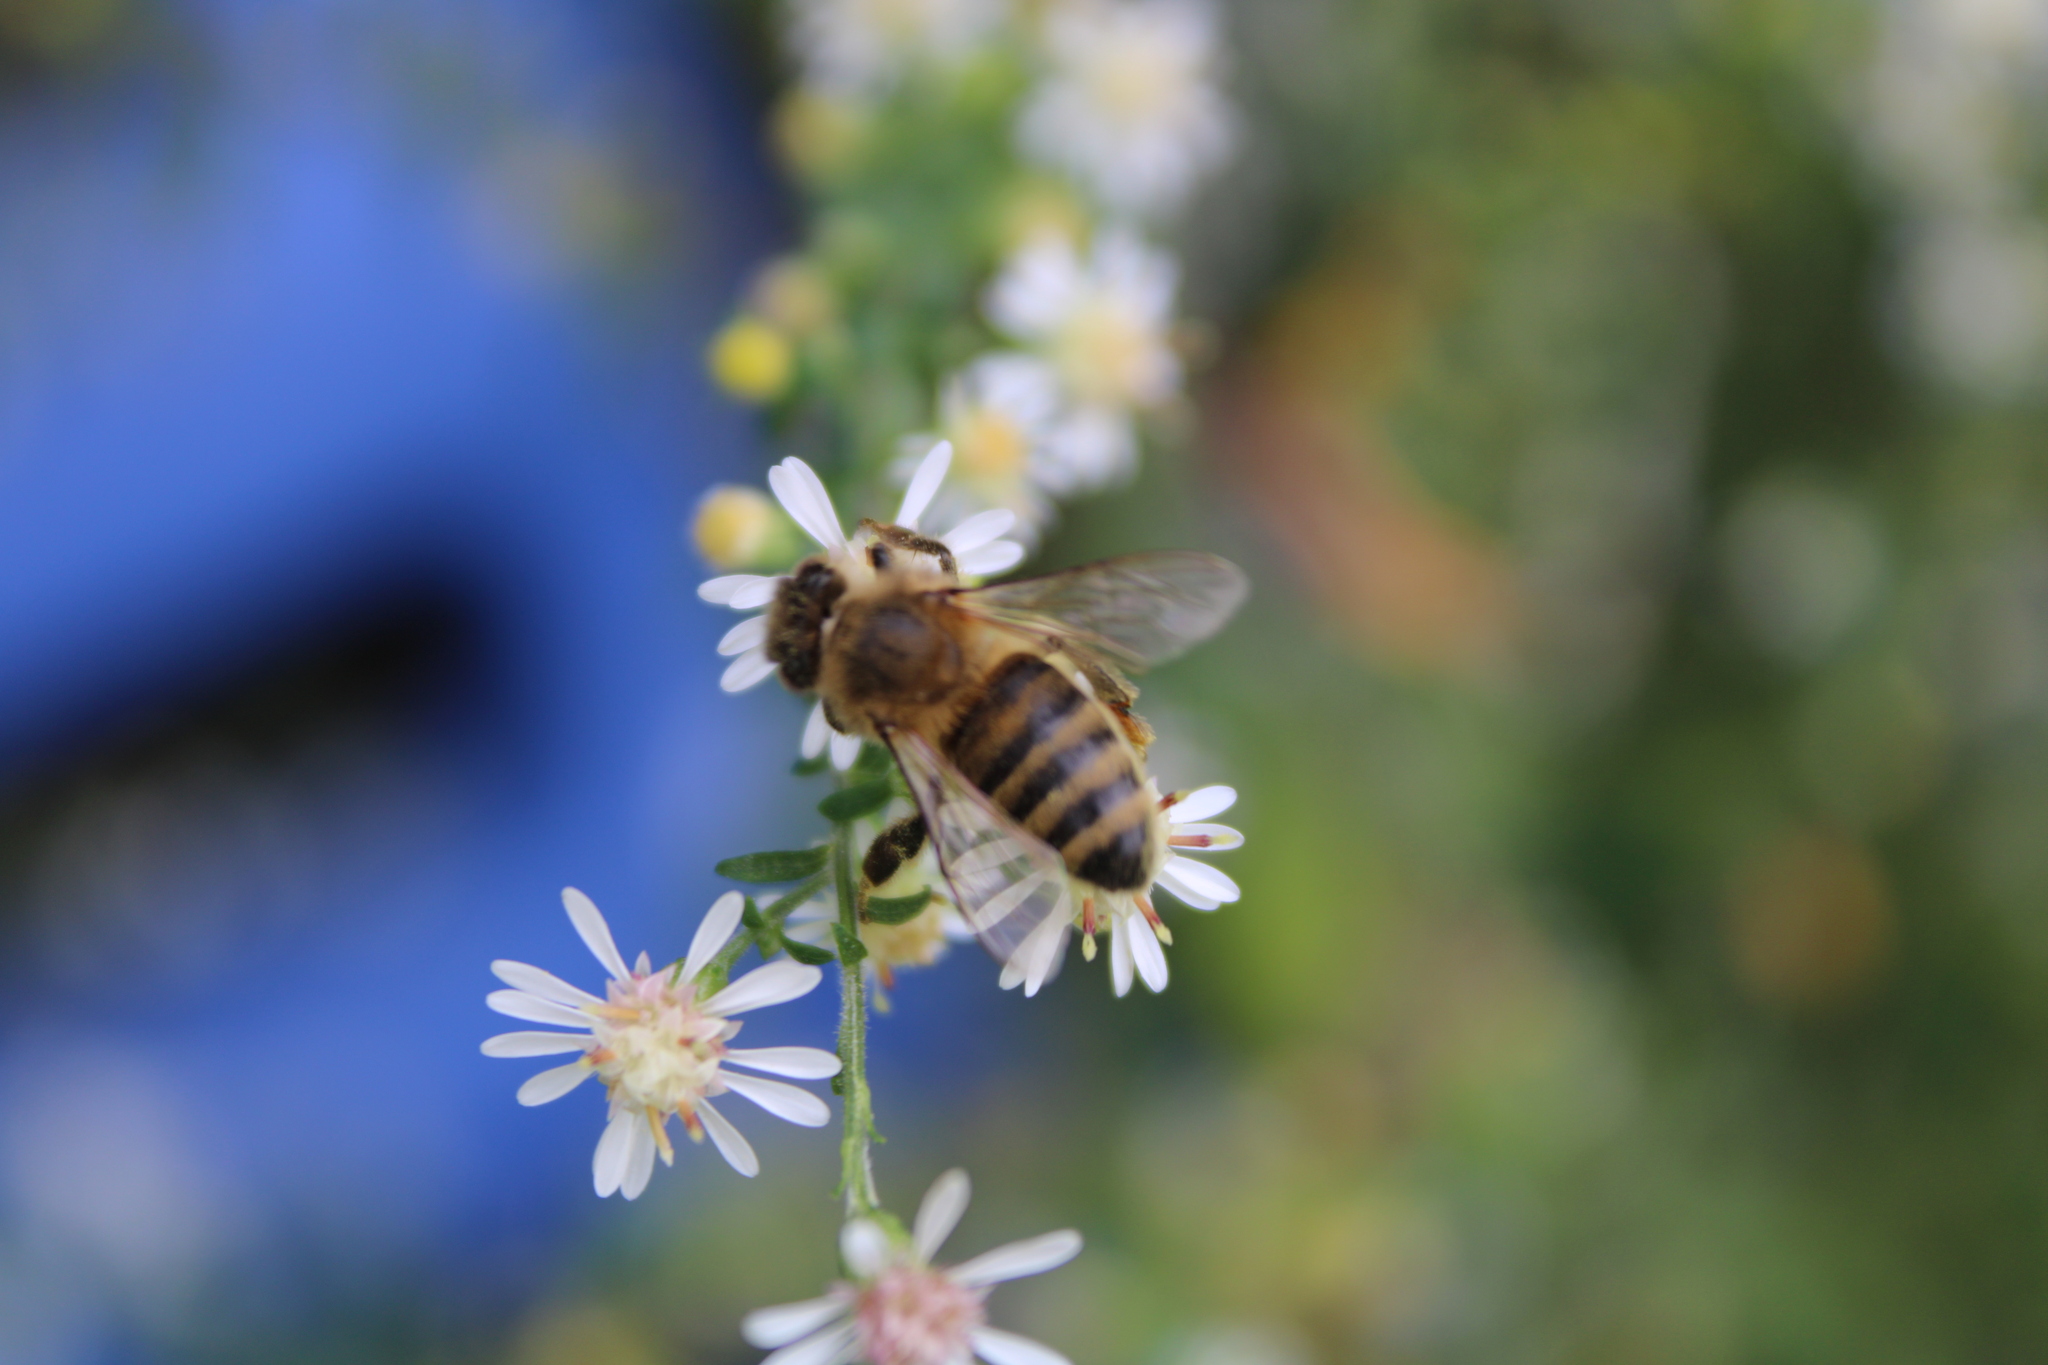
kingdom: Animalia
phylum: Arthropoda
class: Insecta
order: Hymenoptera
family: Apidae
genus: Apis
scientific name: Apis mellifera
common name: Honey bee
